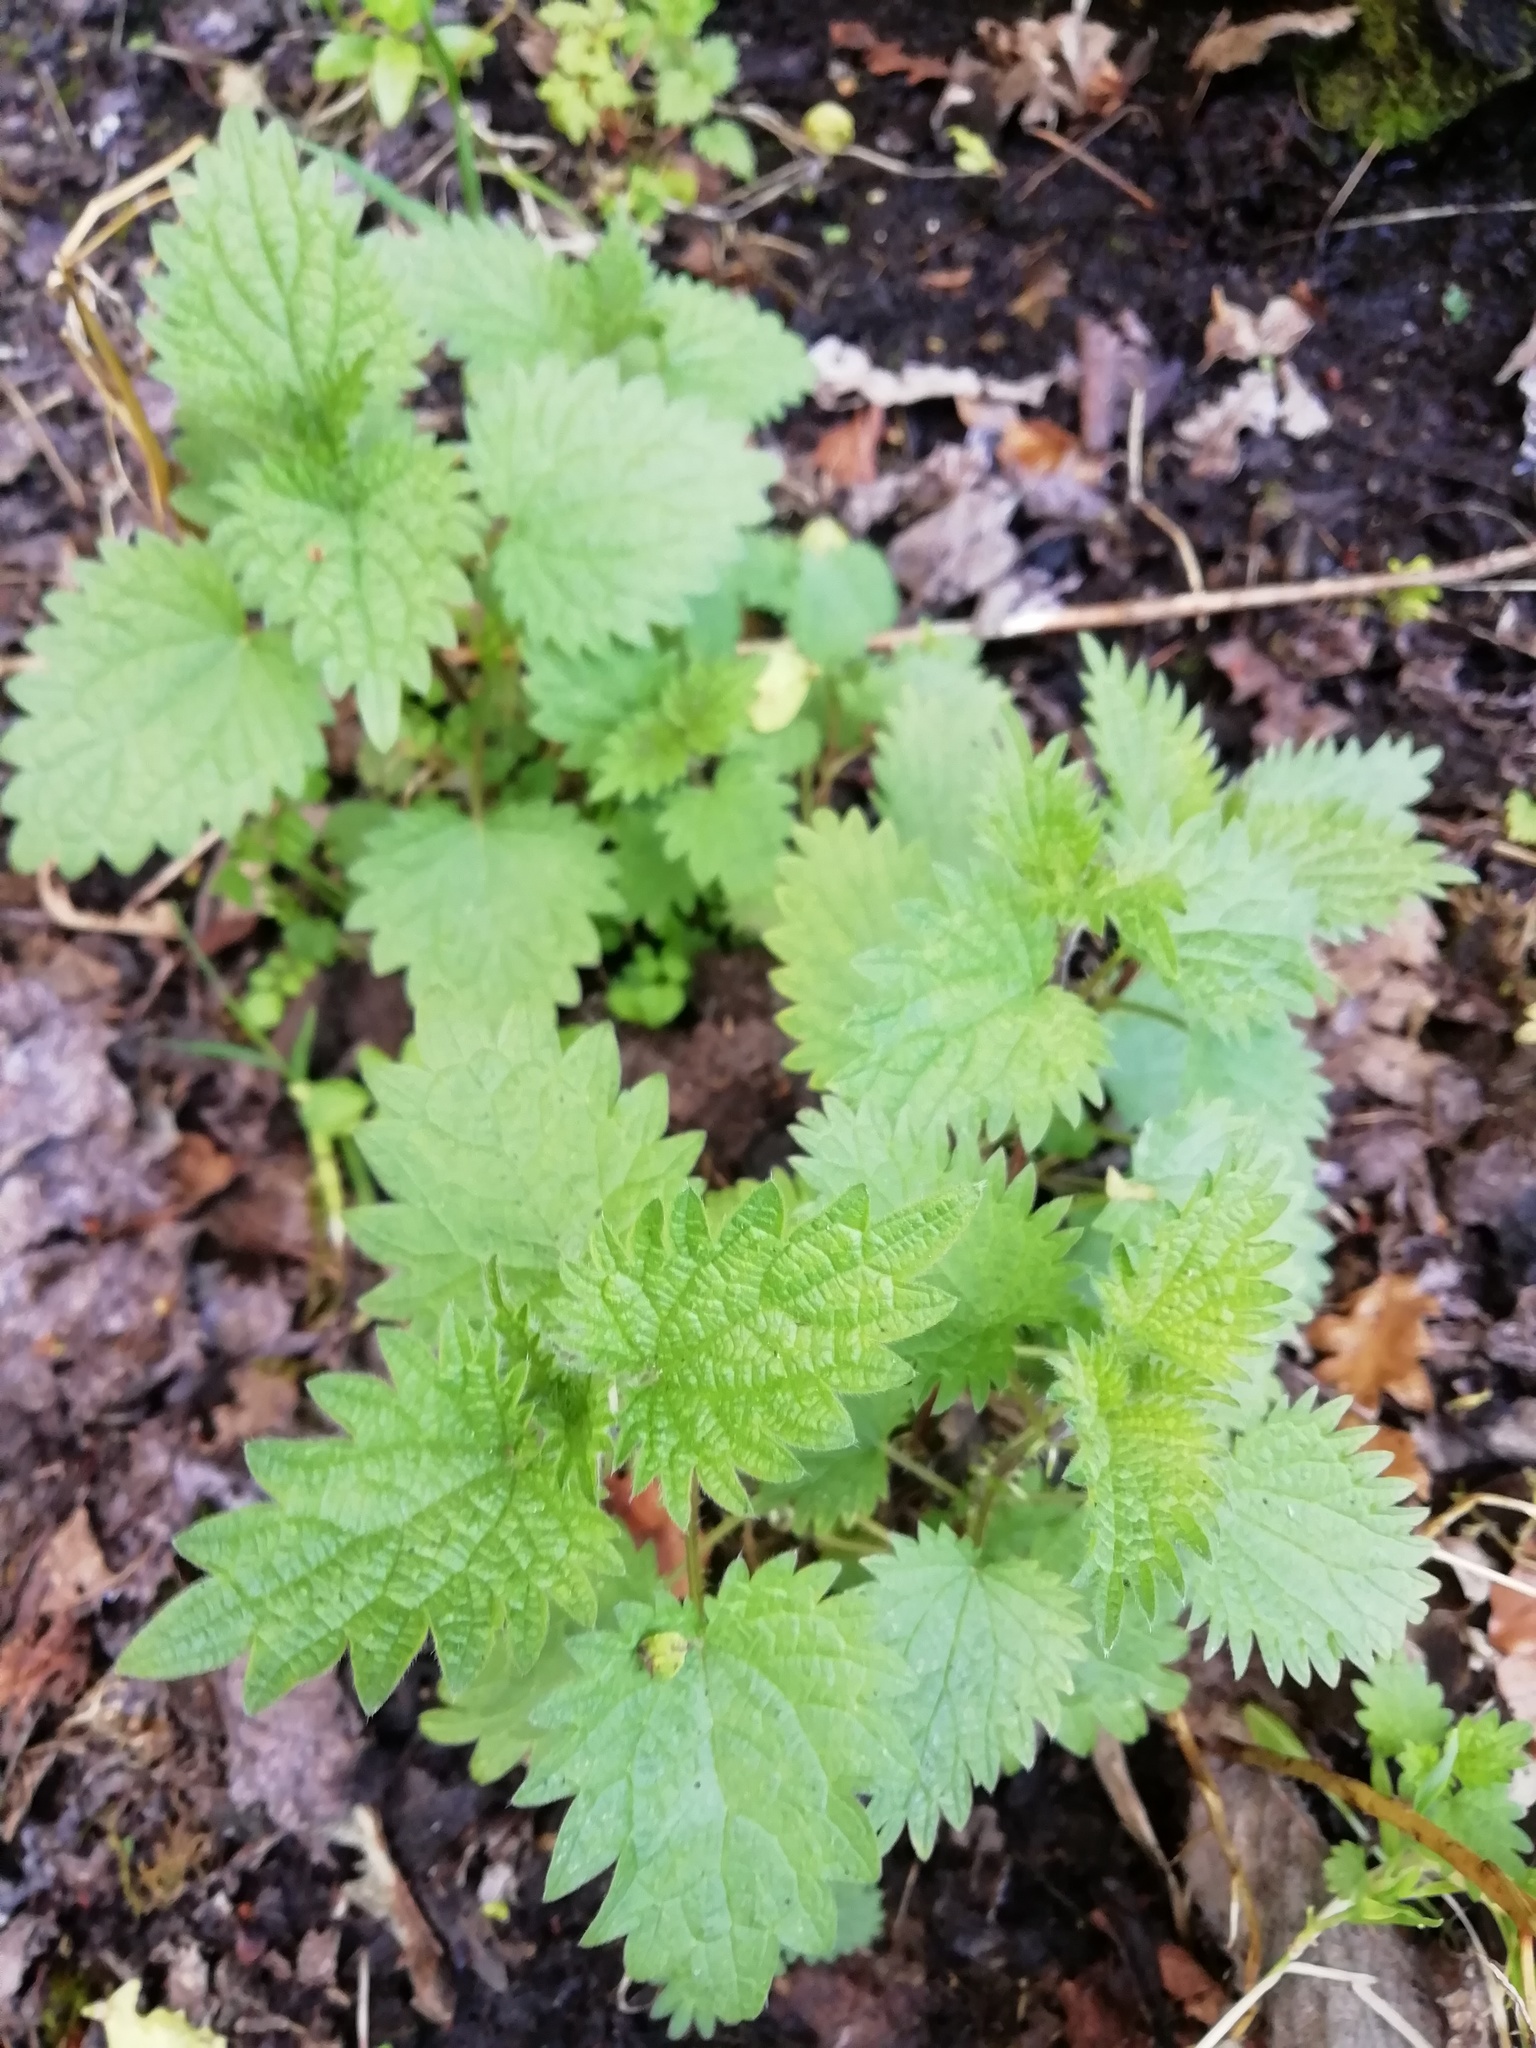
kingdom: Plantae
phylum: Tracheophyta
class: Magnoliopsida
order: Rosales
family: Urticaceae
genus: Urtica
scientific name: Urtica dioica
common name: Common nettle
